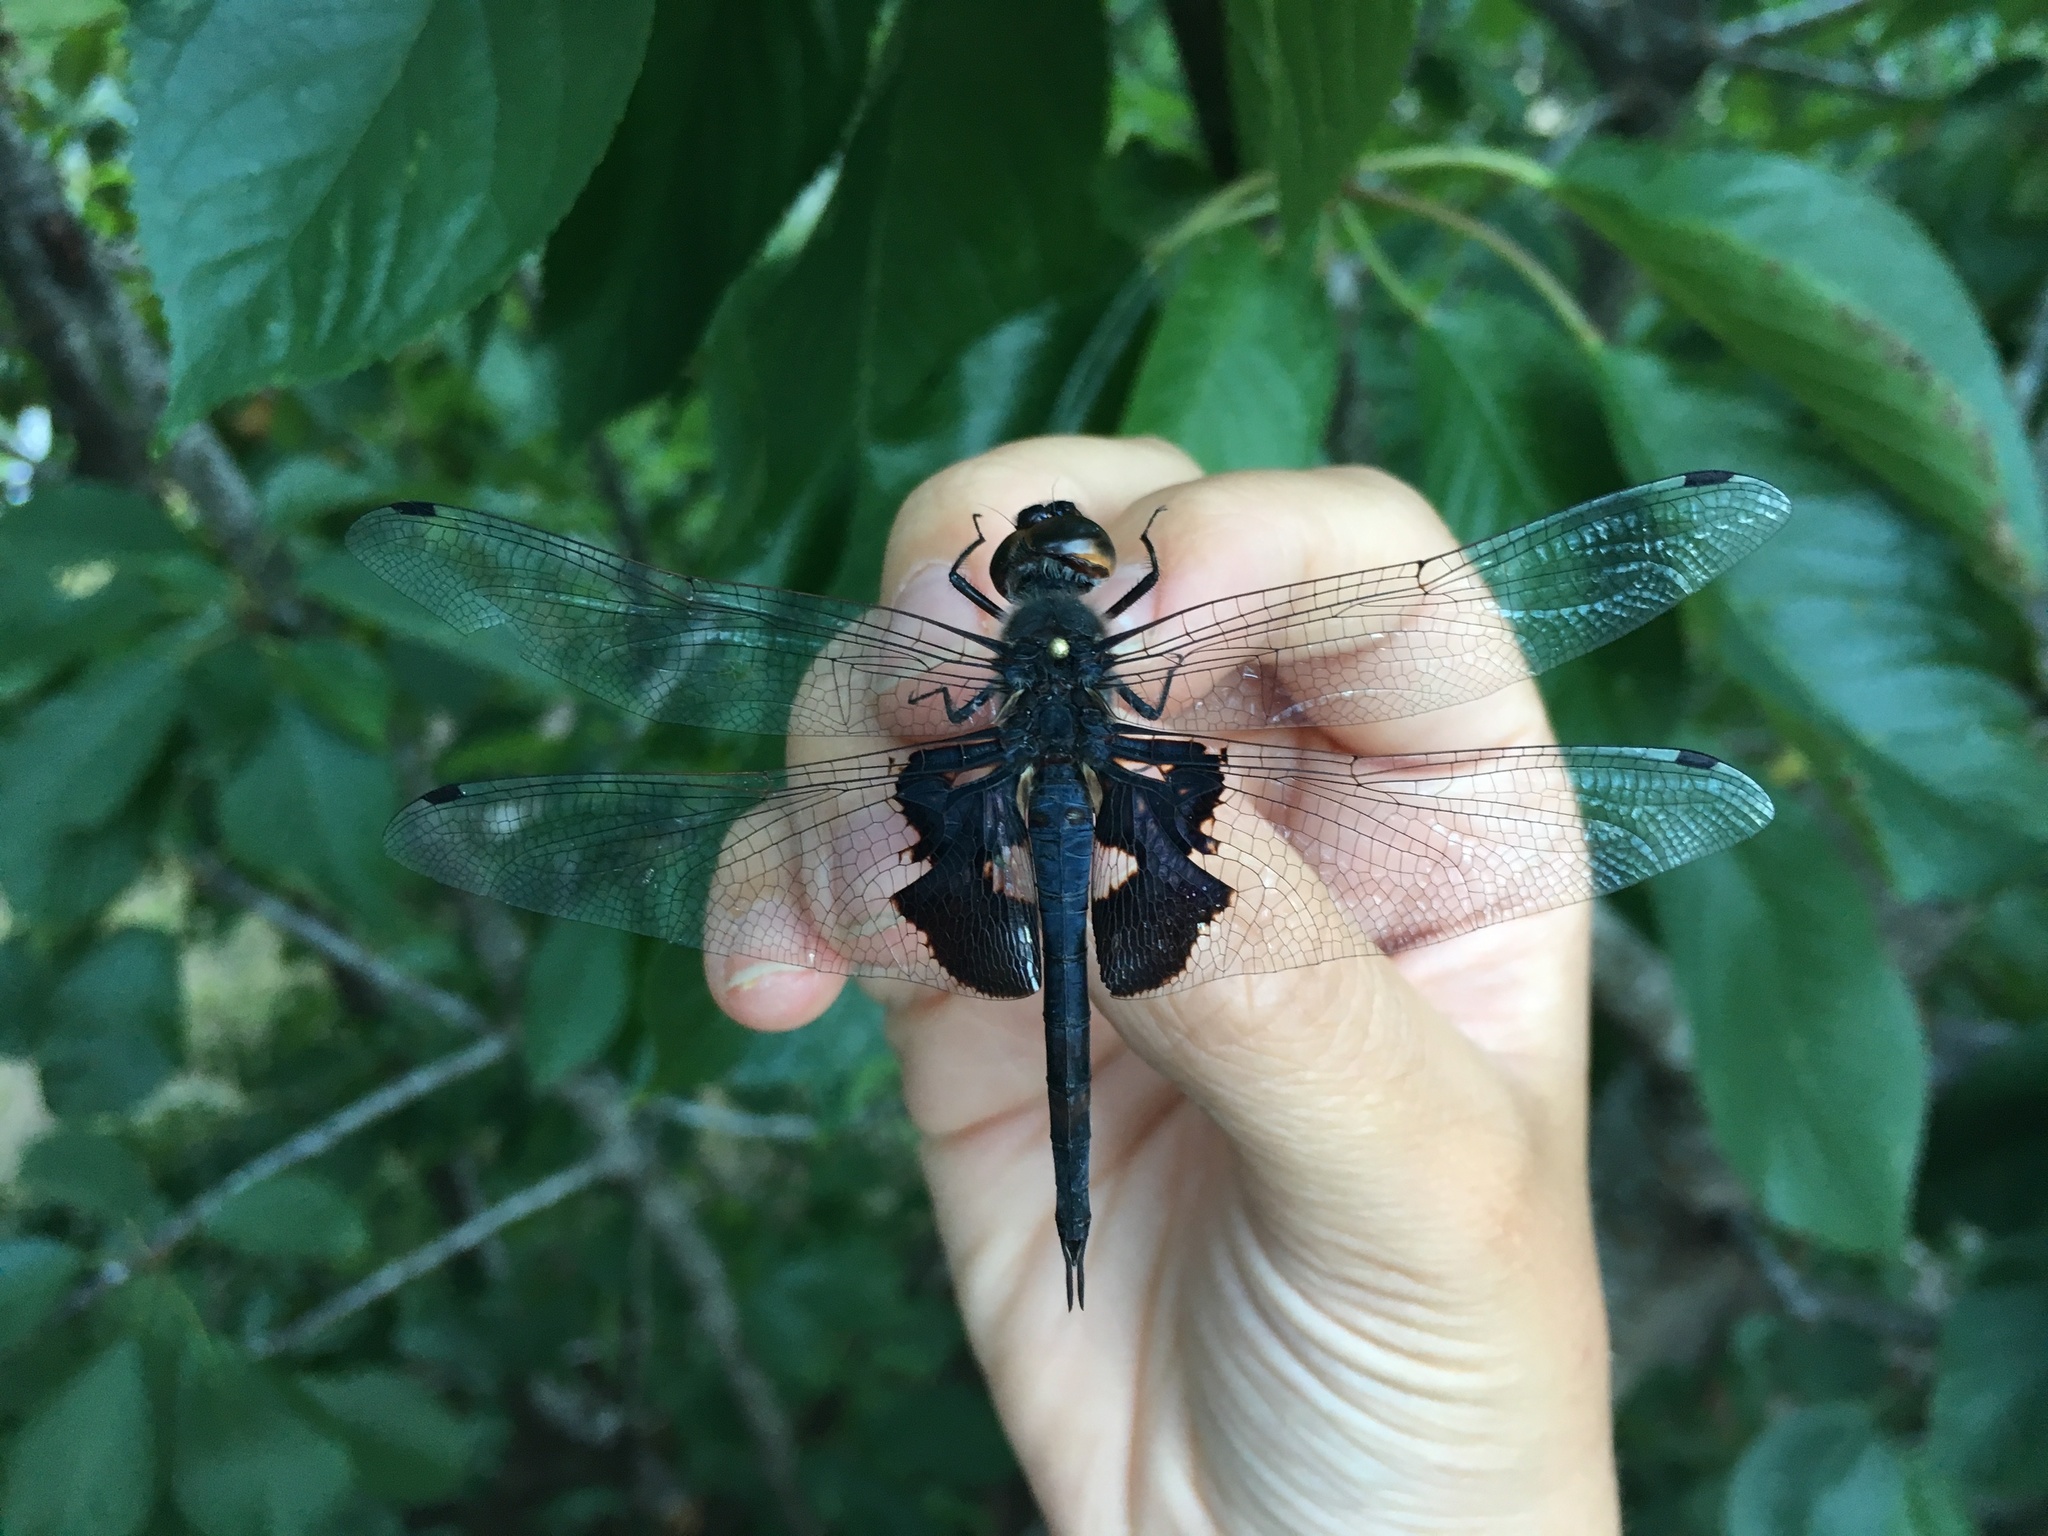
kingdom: Animalia
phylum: Arthropoda
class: Insecta
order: Odonata
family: Libellulidae
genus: Tramea
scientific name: Tramea lacerata
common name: Black saddlebags
